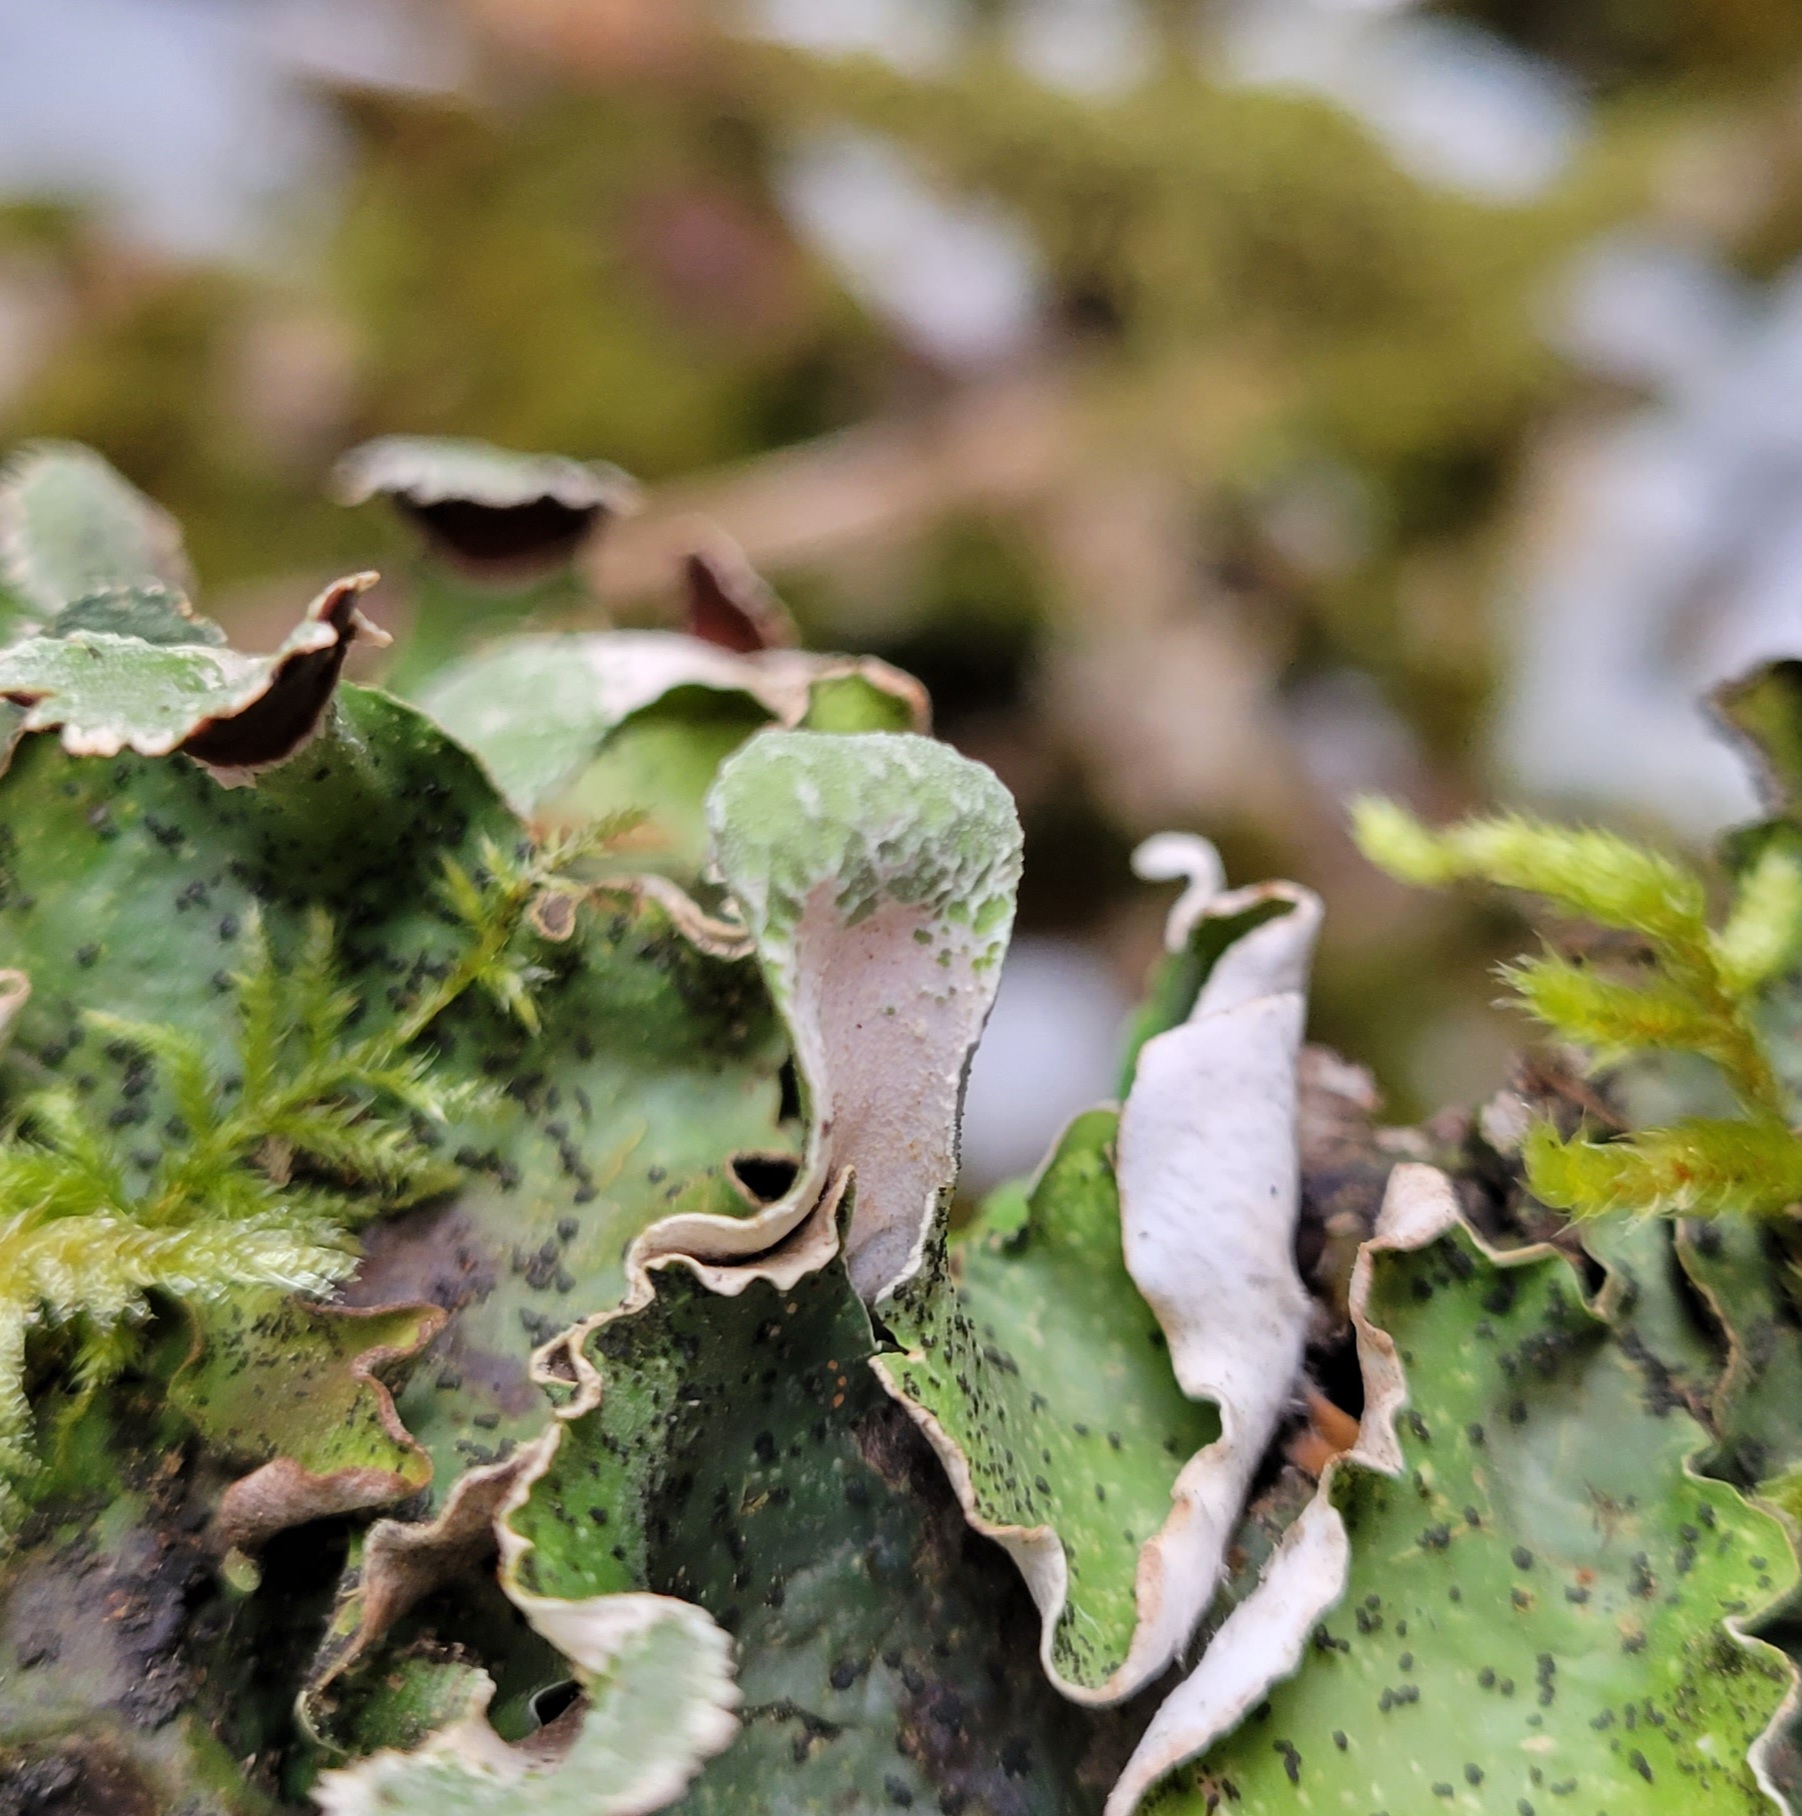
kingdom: Fungi
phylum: Ascomycota
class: Lecanoromycetes
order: Peltigerales
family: Peltigeraceae
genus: Peltigera
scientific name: Peltigera britannica
